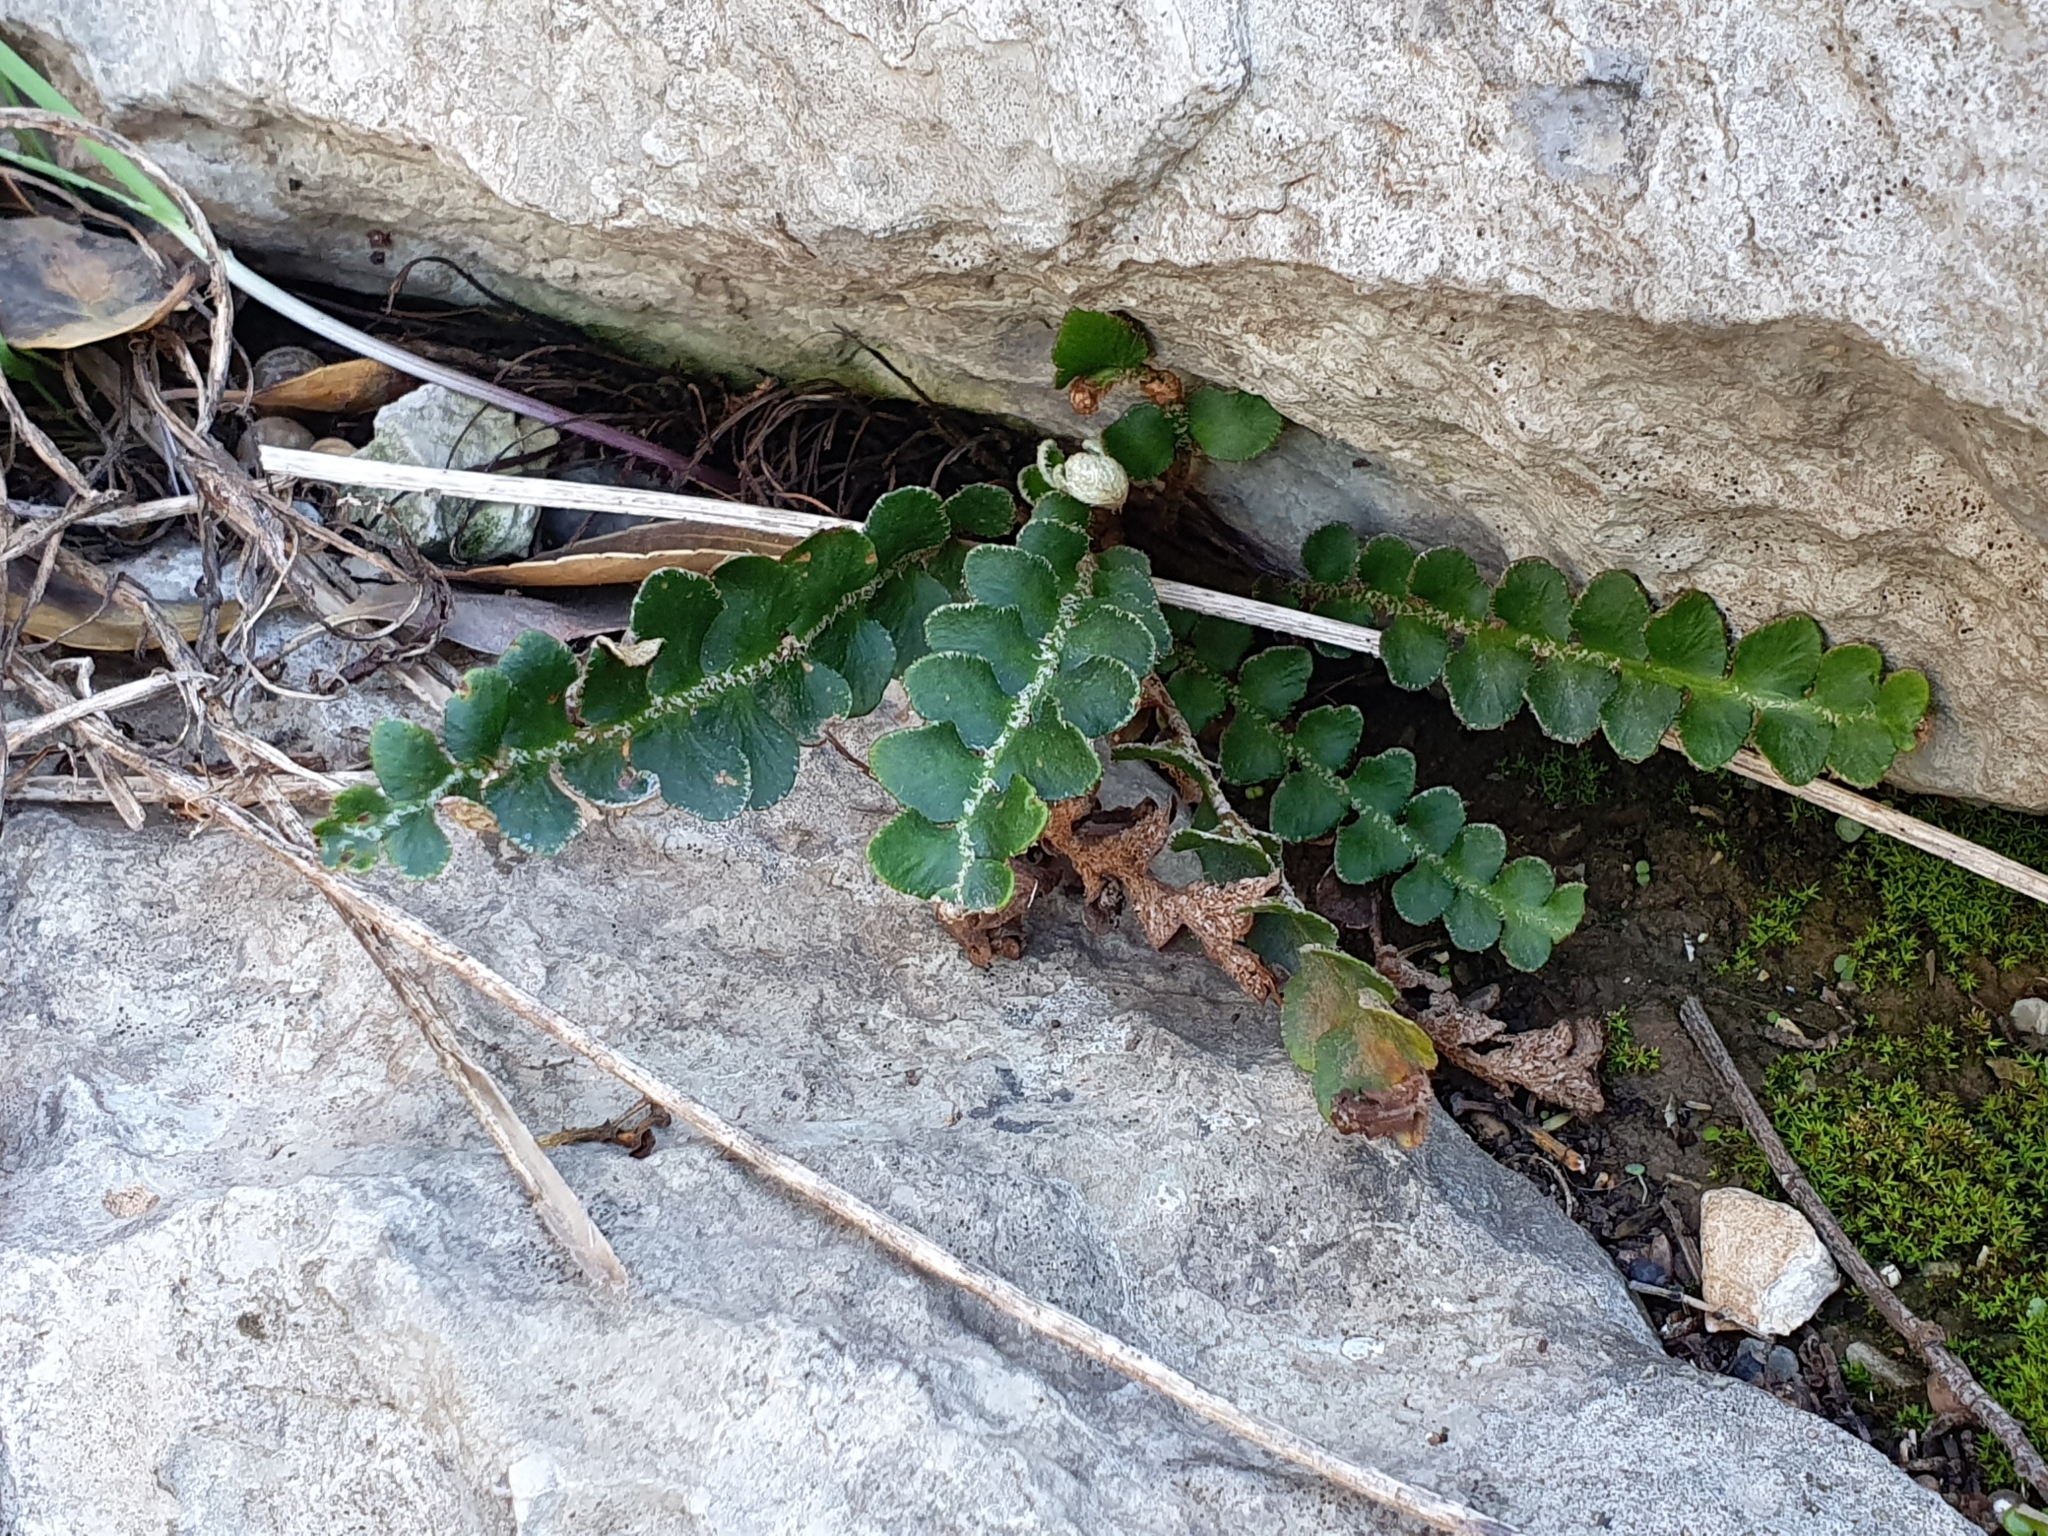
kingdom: Plantae
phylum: Tracheophyta
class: Polypodiopsida
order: Polypodiales
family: Aspleniaceae
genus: Asplenium
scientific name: Asplenium ceterach
